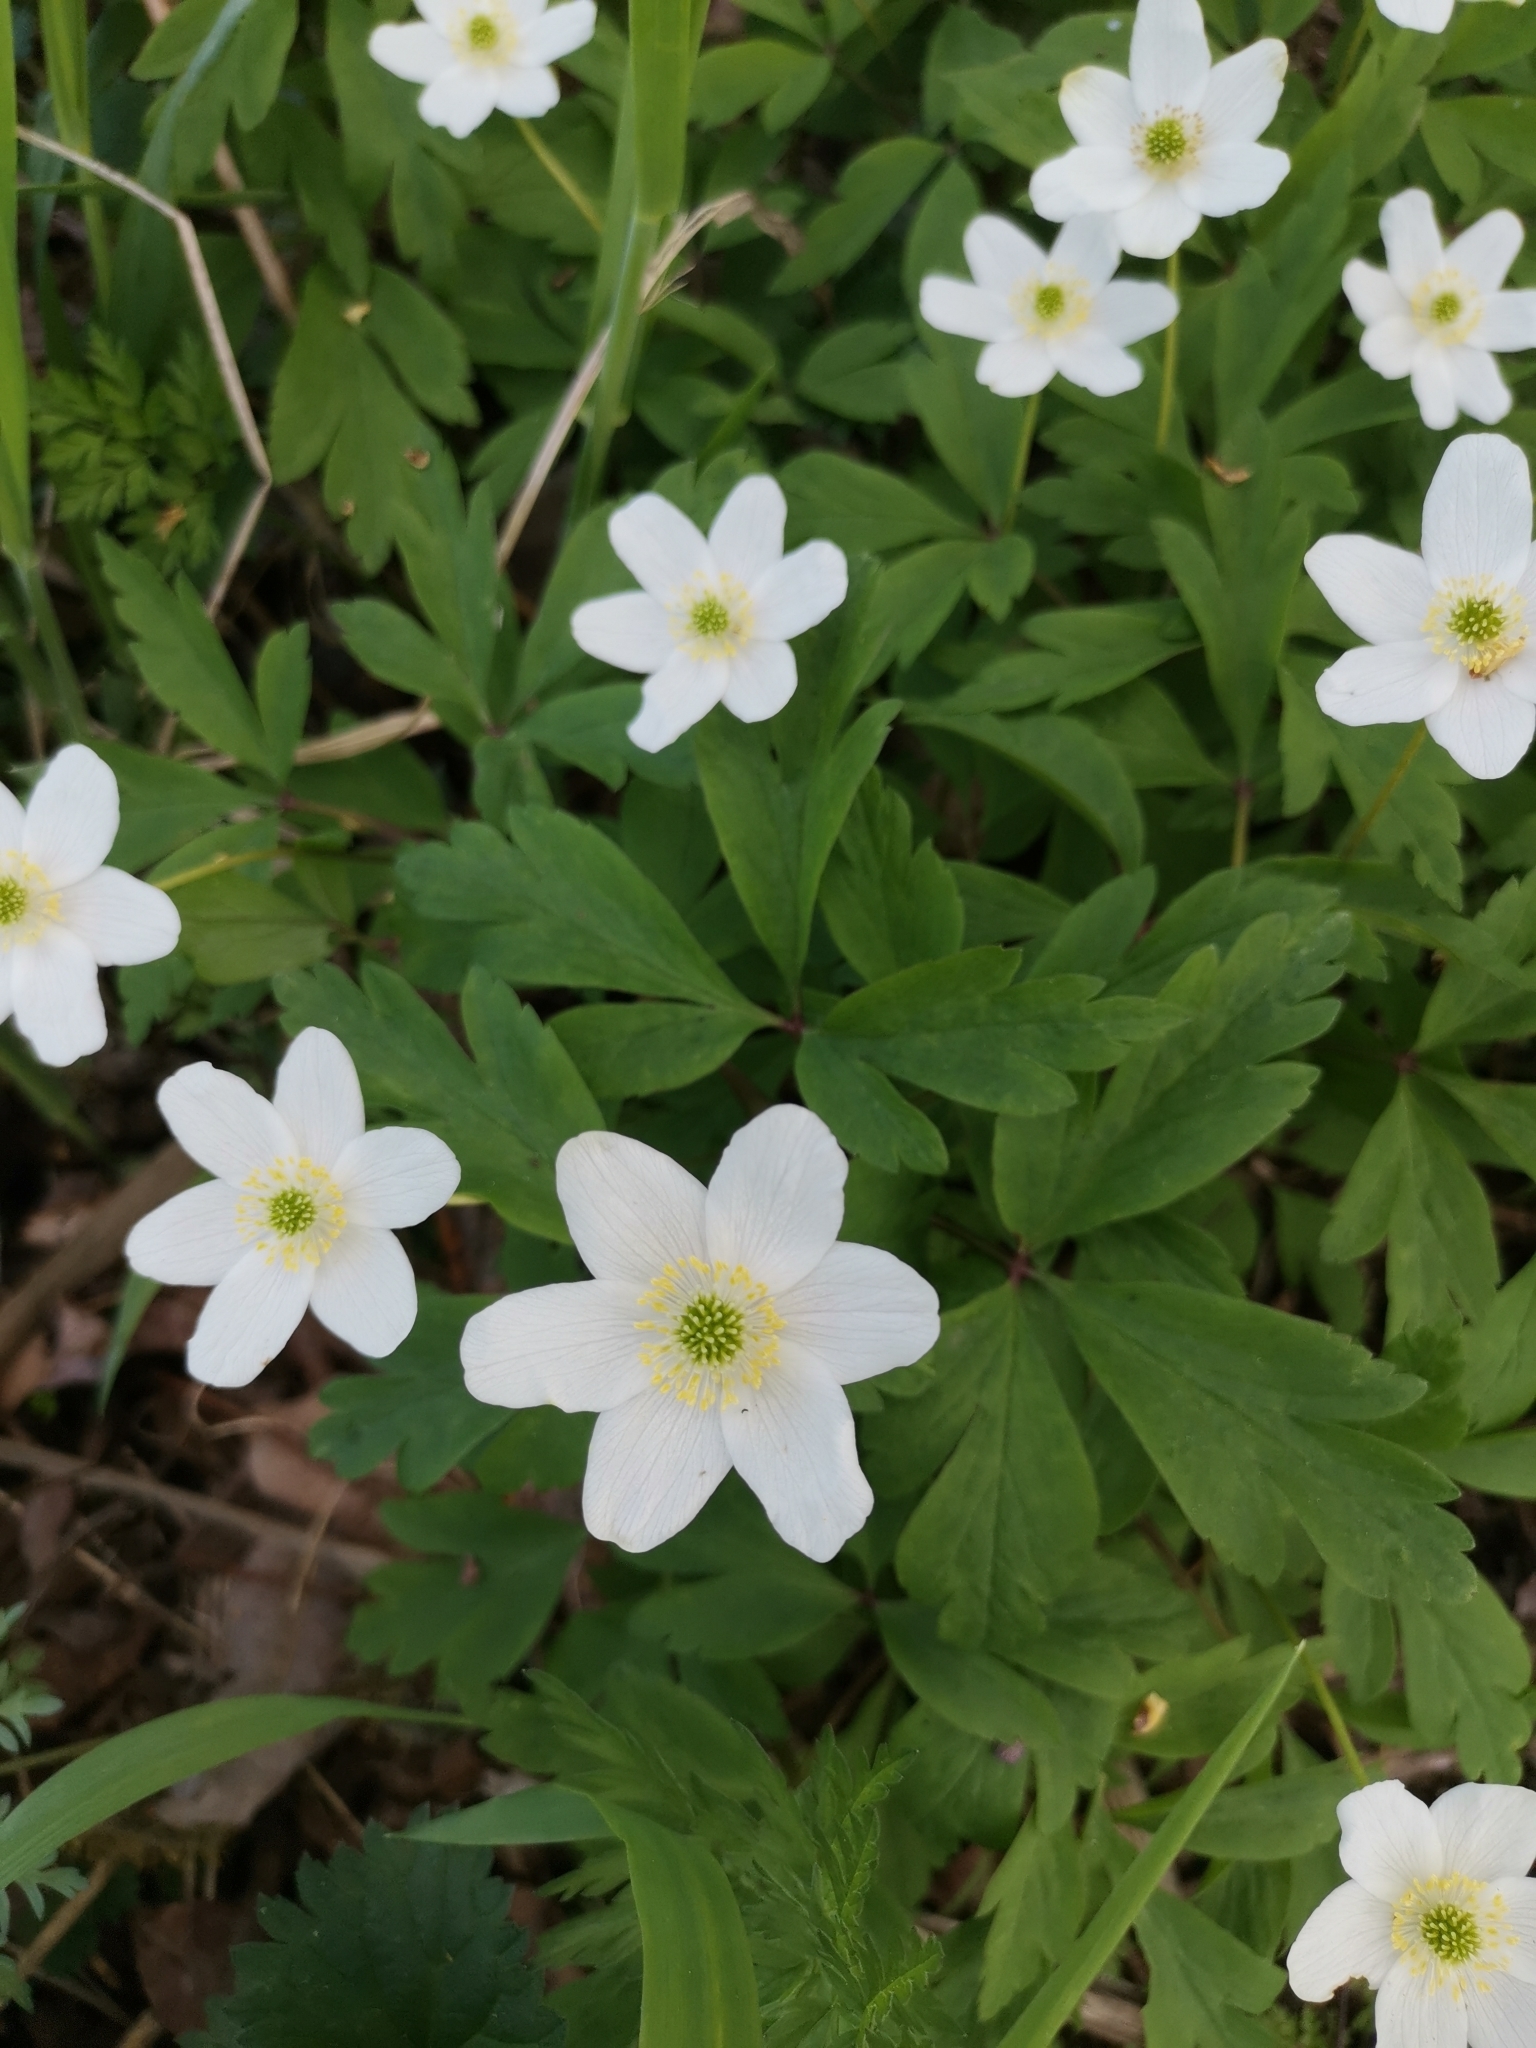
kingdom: Plantae
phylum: Tracheophyta
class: Magnoliopsida
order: Ranunculales
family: Ranunculaceae
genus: Anemone
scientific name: Anemone nemorosa
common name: Wood anemone
